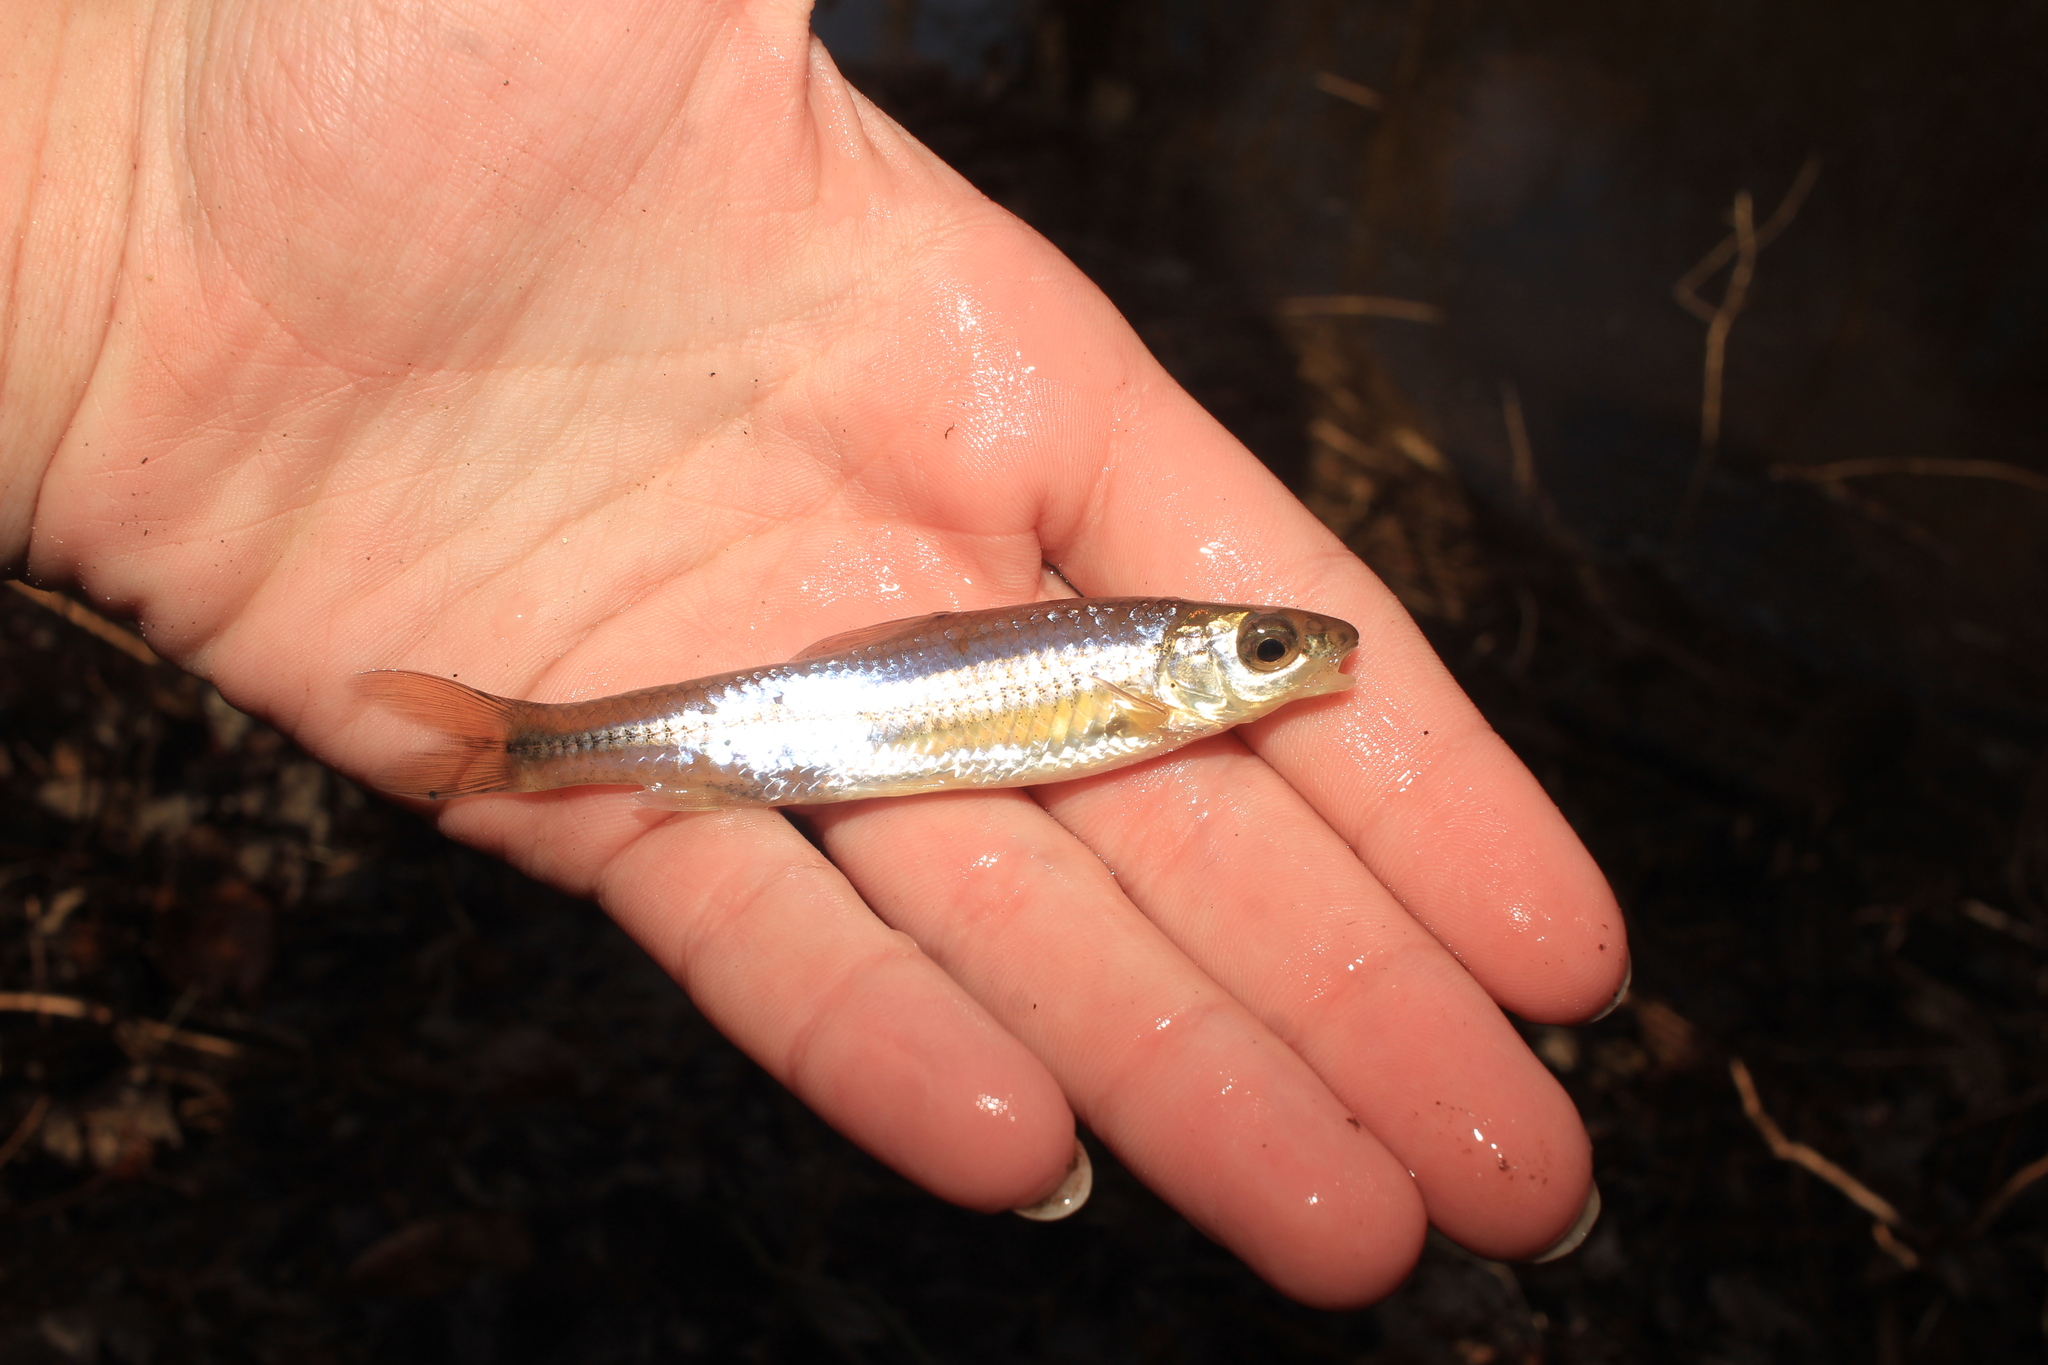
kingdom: Animalia
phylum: Chordata
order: Cypriniformes
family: Cyprinidae
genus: Notropis
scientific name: Notropis
